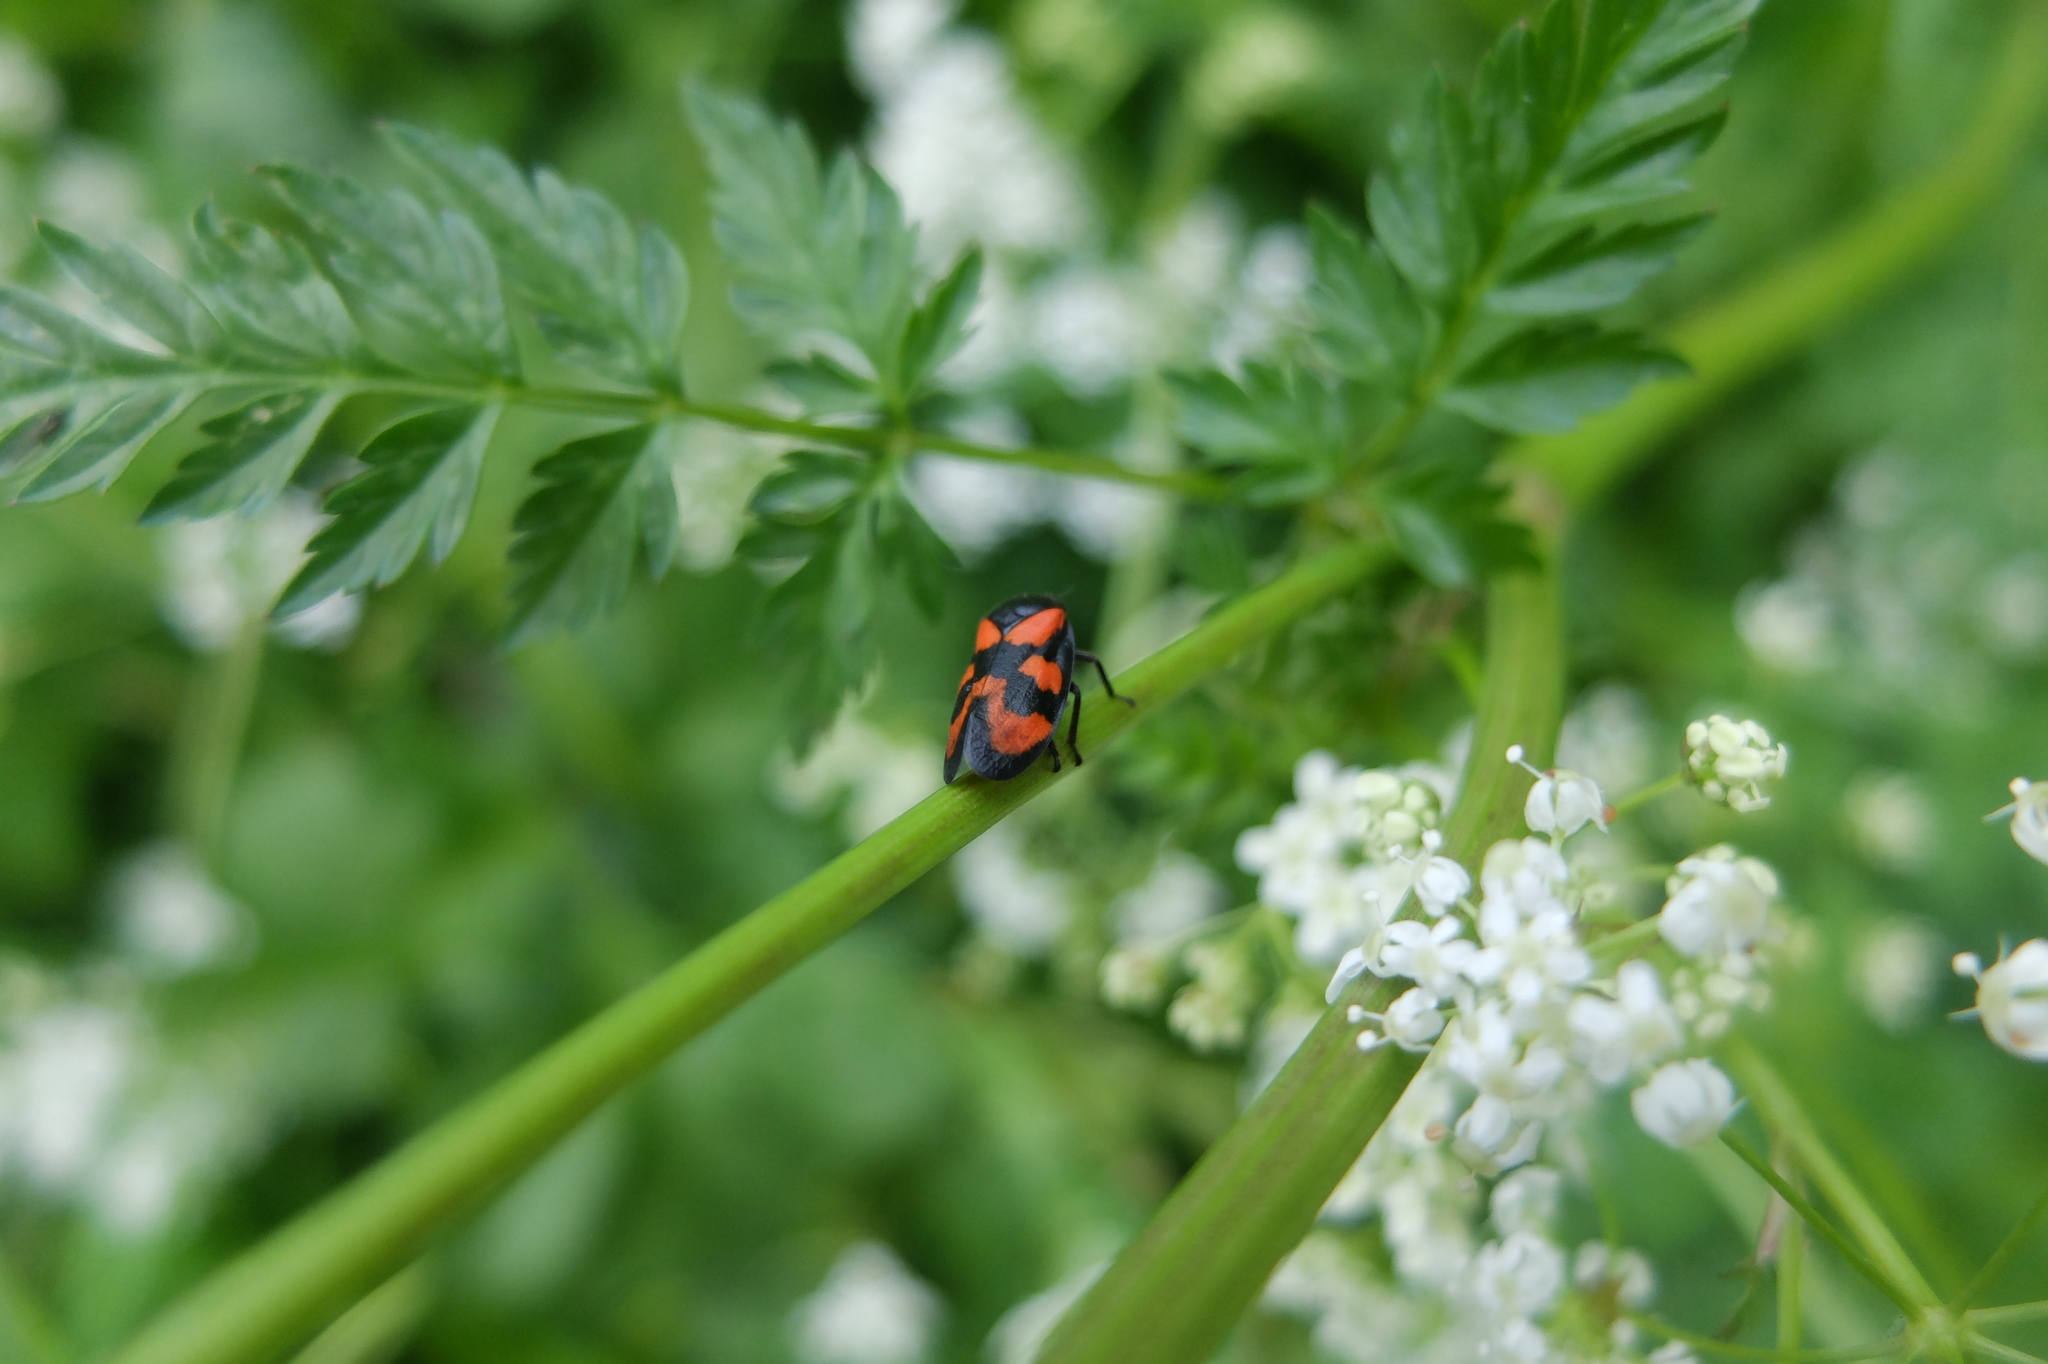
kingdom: Animalia
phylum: Arthropoda
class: Insecta
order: Hemiptera
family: Cercopidae
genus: Cercopis
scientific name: Cercopis vulnerata
